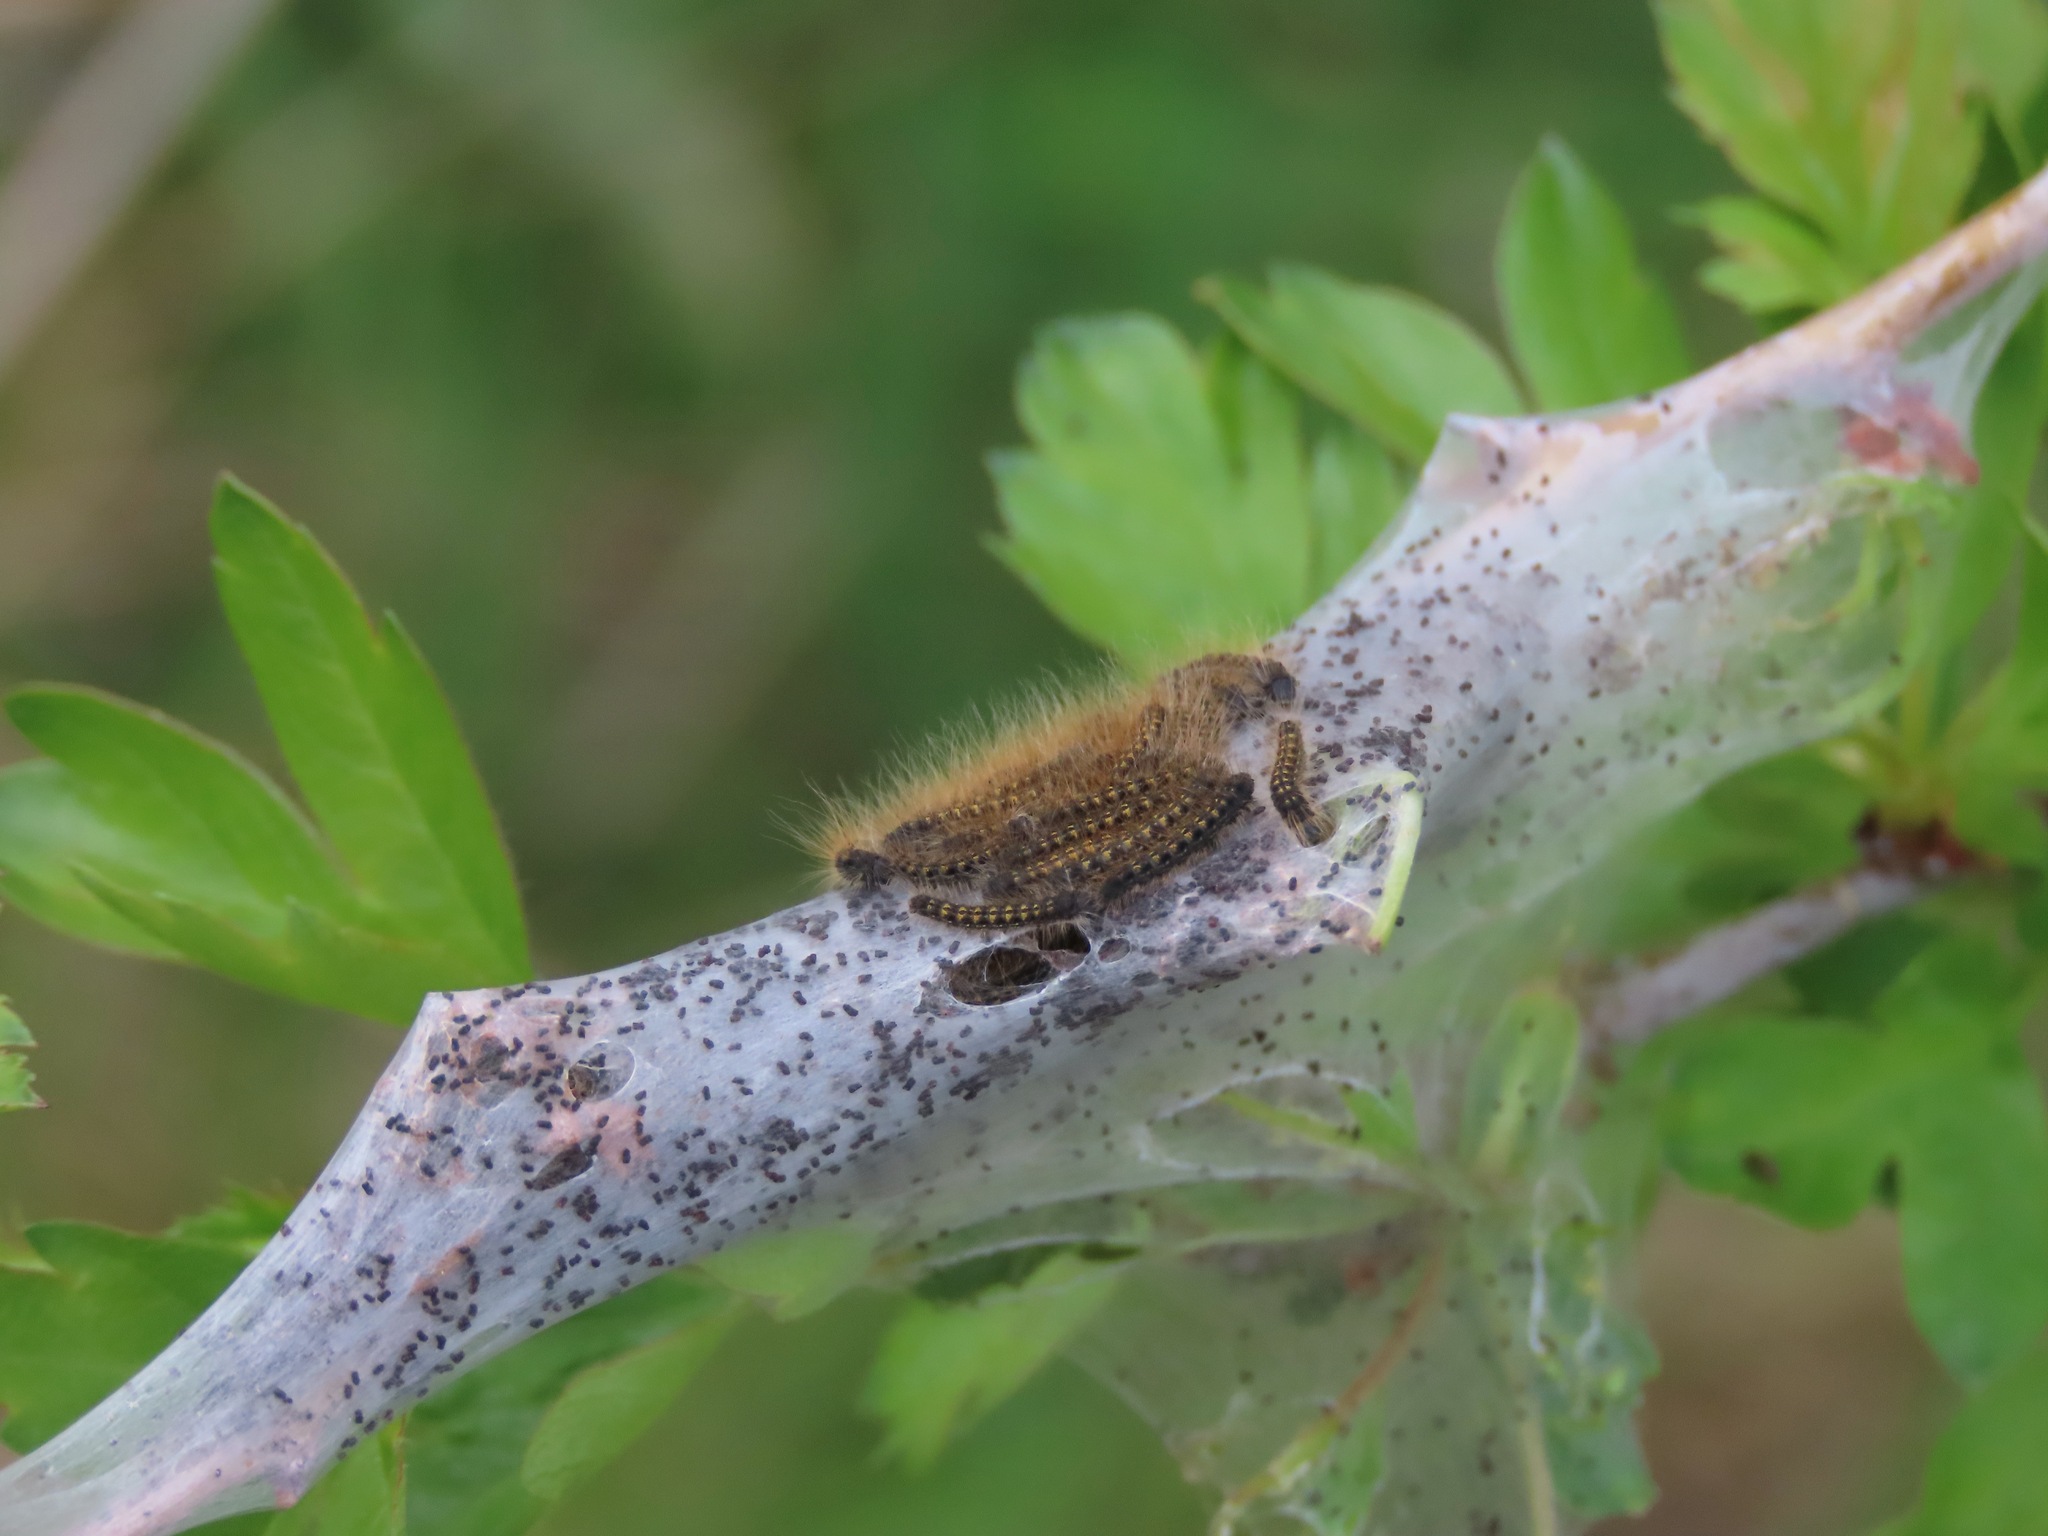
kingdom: Animalia
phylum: Arthropoda
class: Insecta
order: Lepidoptera
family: Lasiocampidae
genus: Malacosoma
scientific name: Malacosoma californica
